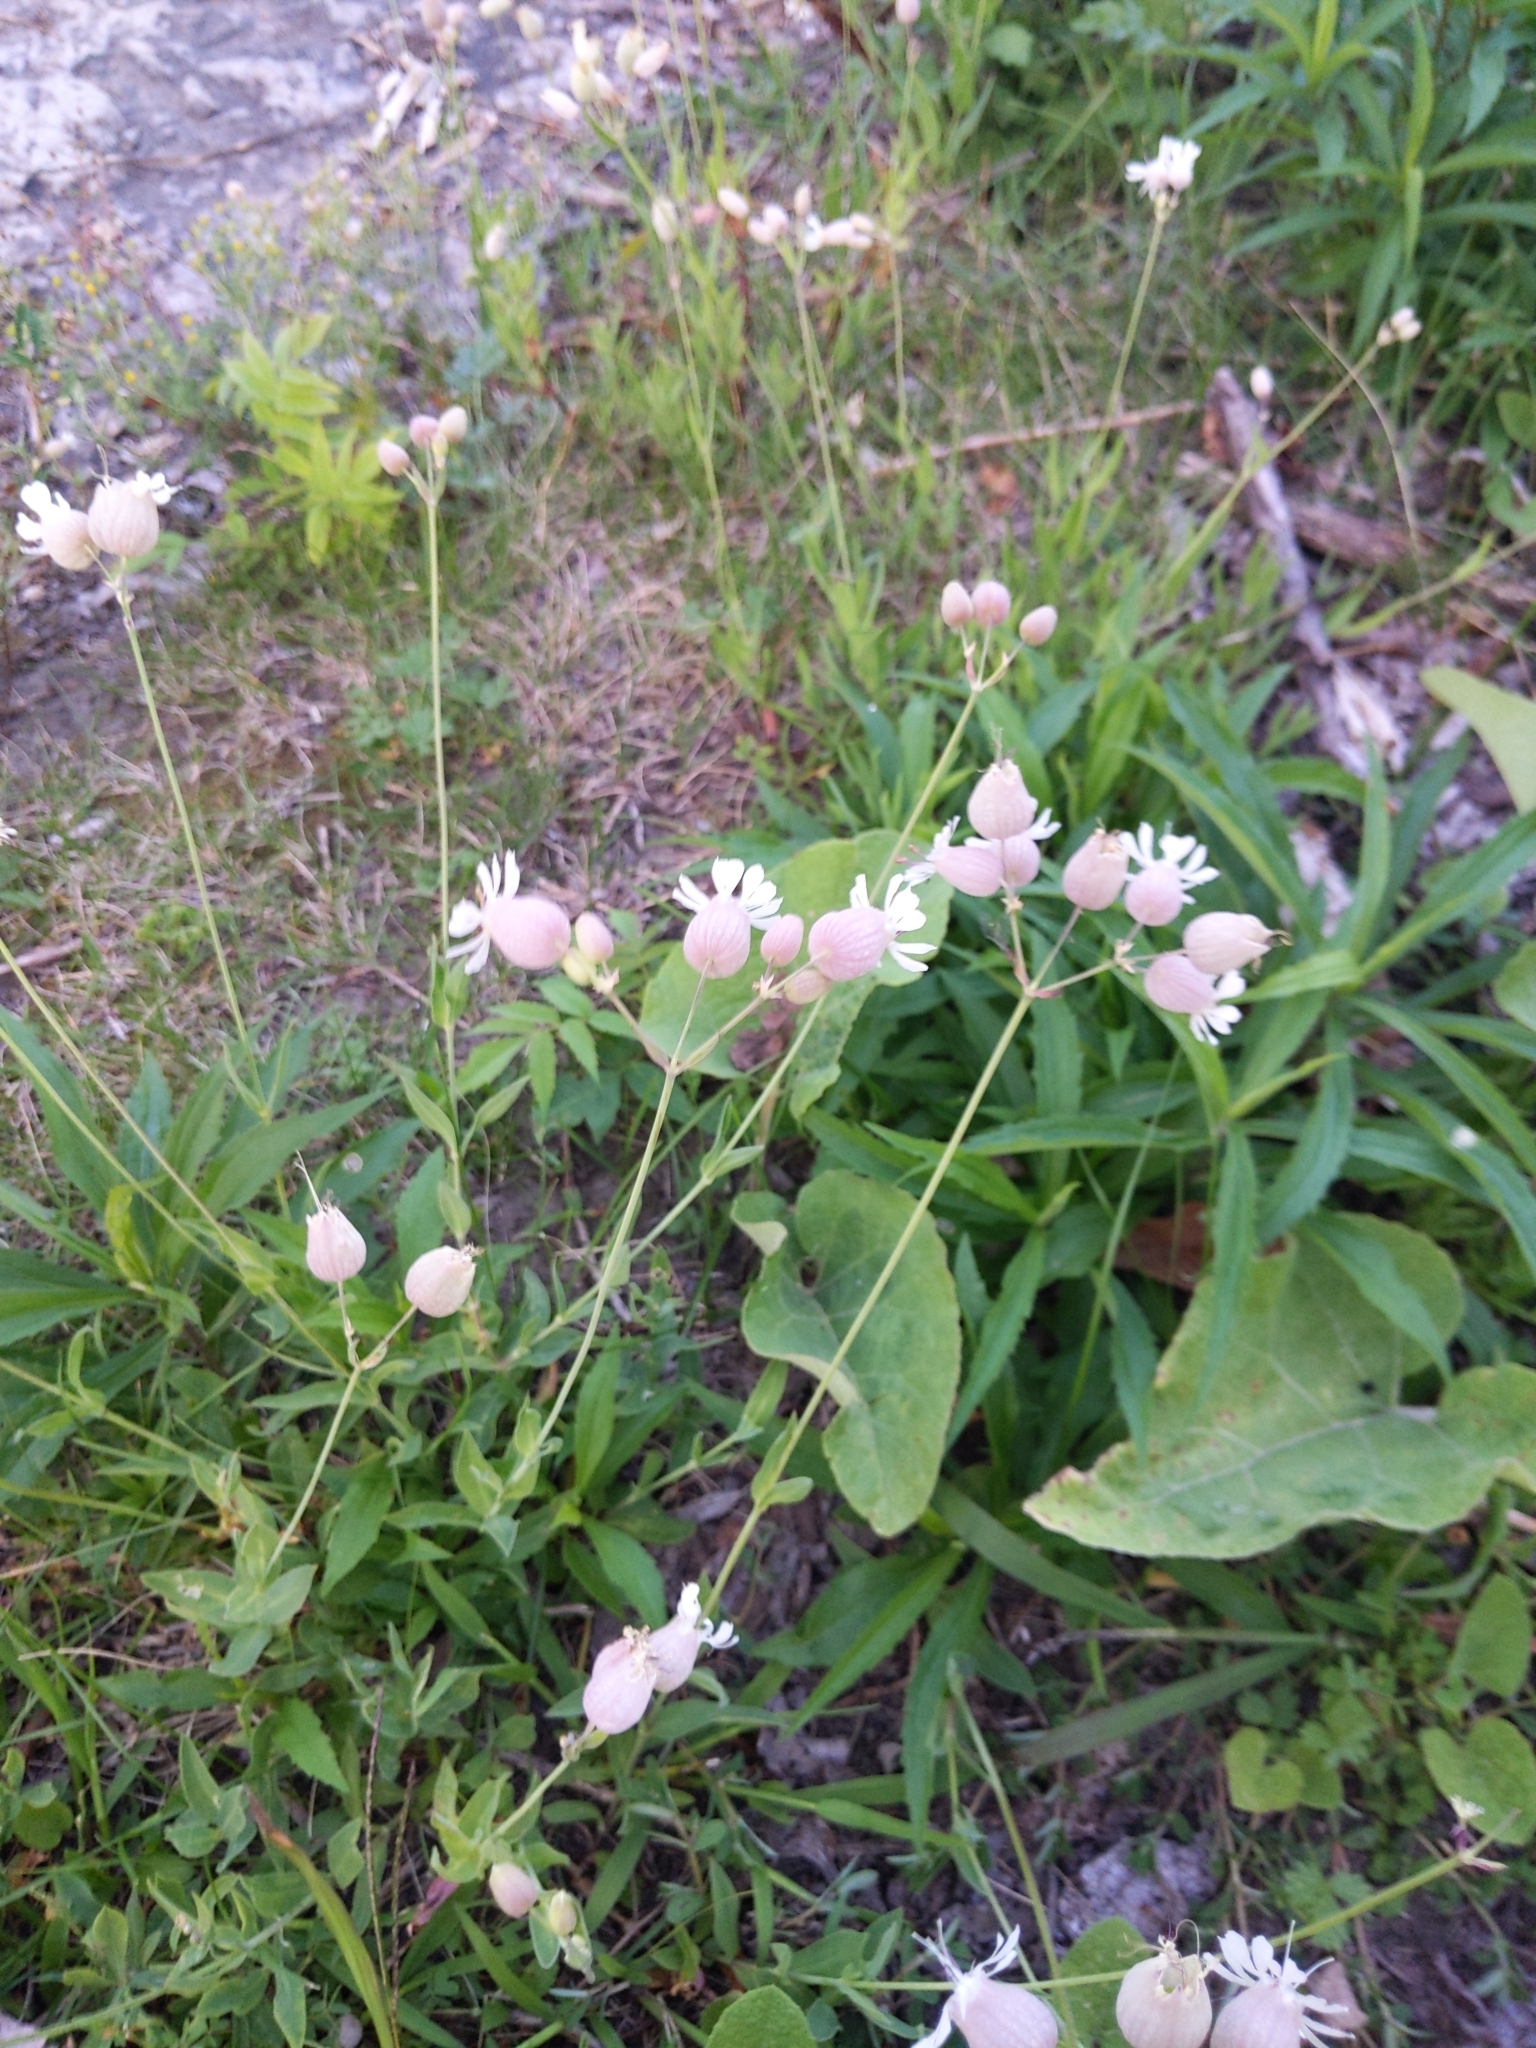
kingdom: Plantae
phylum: Tracheophyta
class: Magnoliopsida
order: Caryophyllales
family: Caryophyllaceae
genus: Silene
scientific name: Silene vulgaris
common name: Bladder campion
